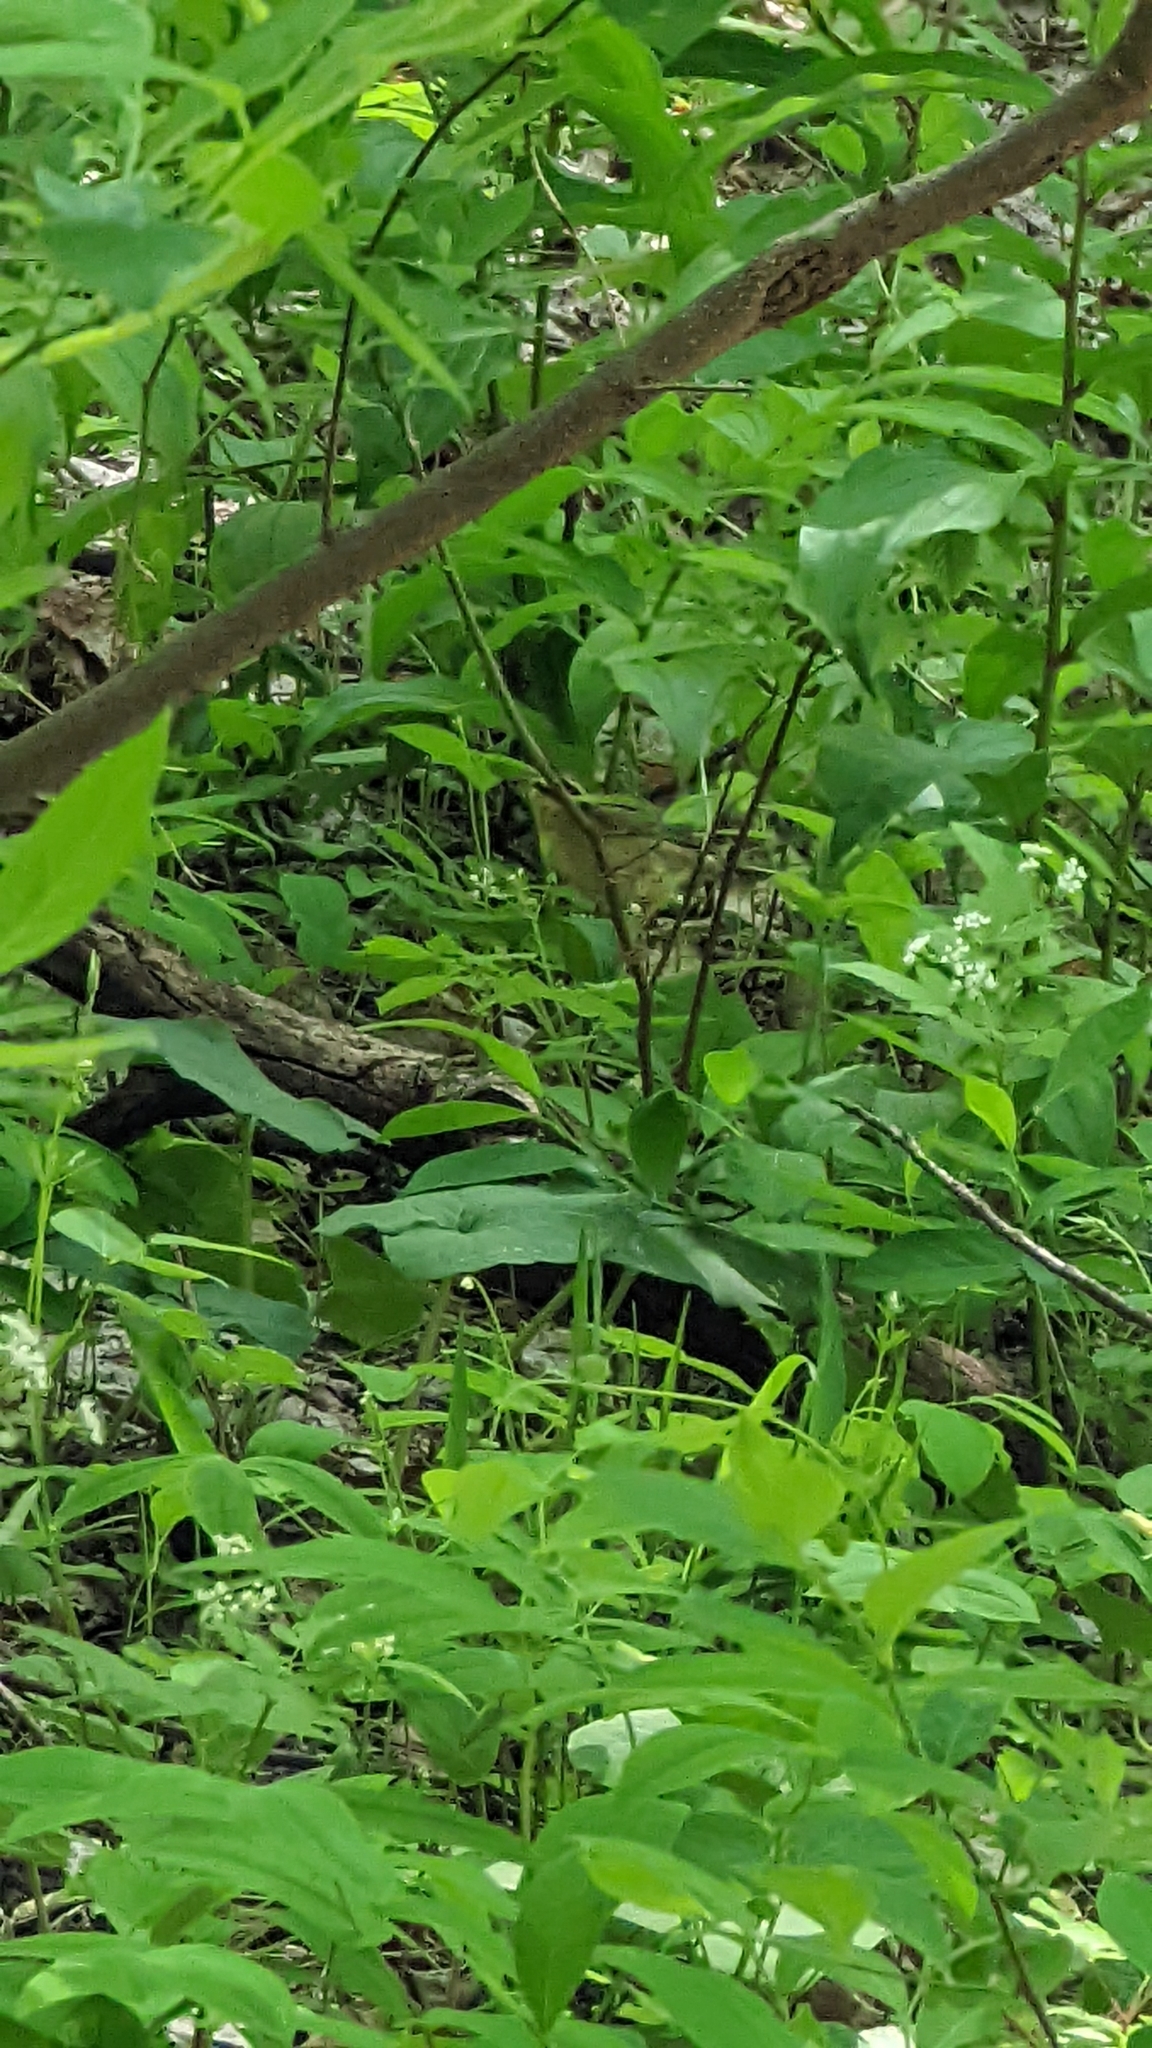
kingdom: Animalia
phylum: Chordata
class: Aves
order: Passeriformes
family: Parulidae
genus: Helmitheros
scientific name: Helmitheros vermivorum
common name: Worm-eating warbler
